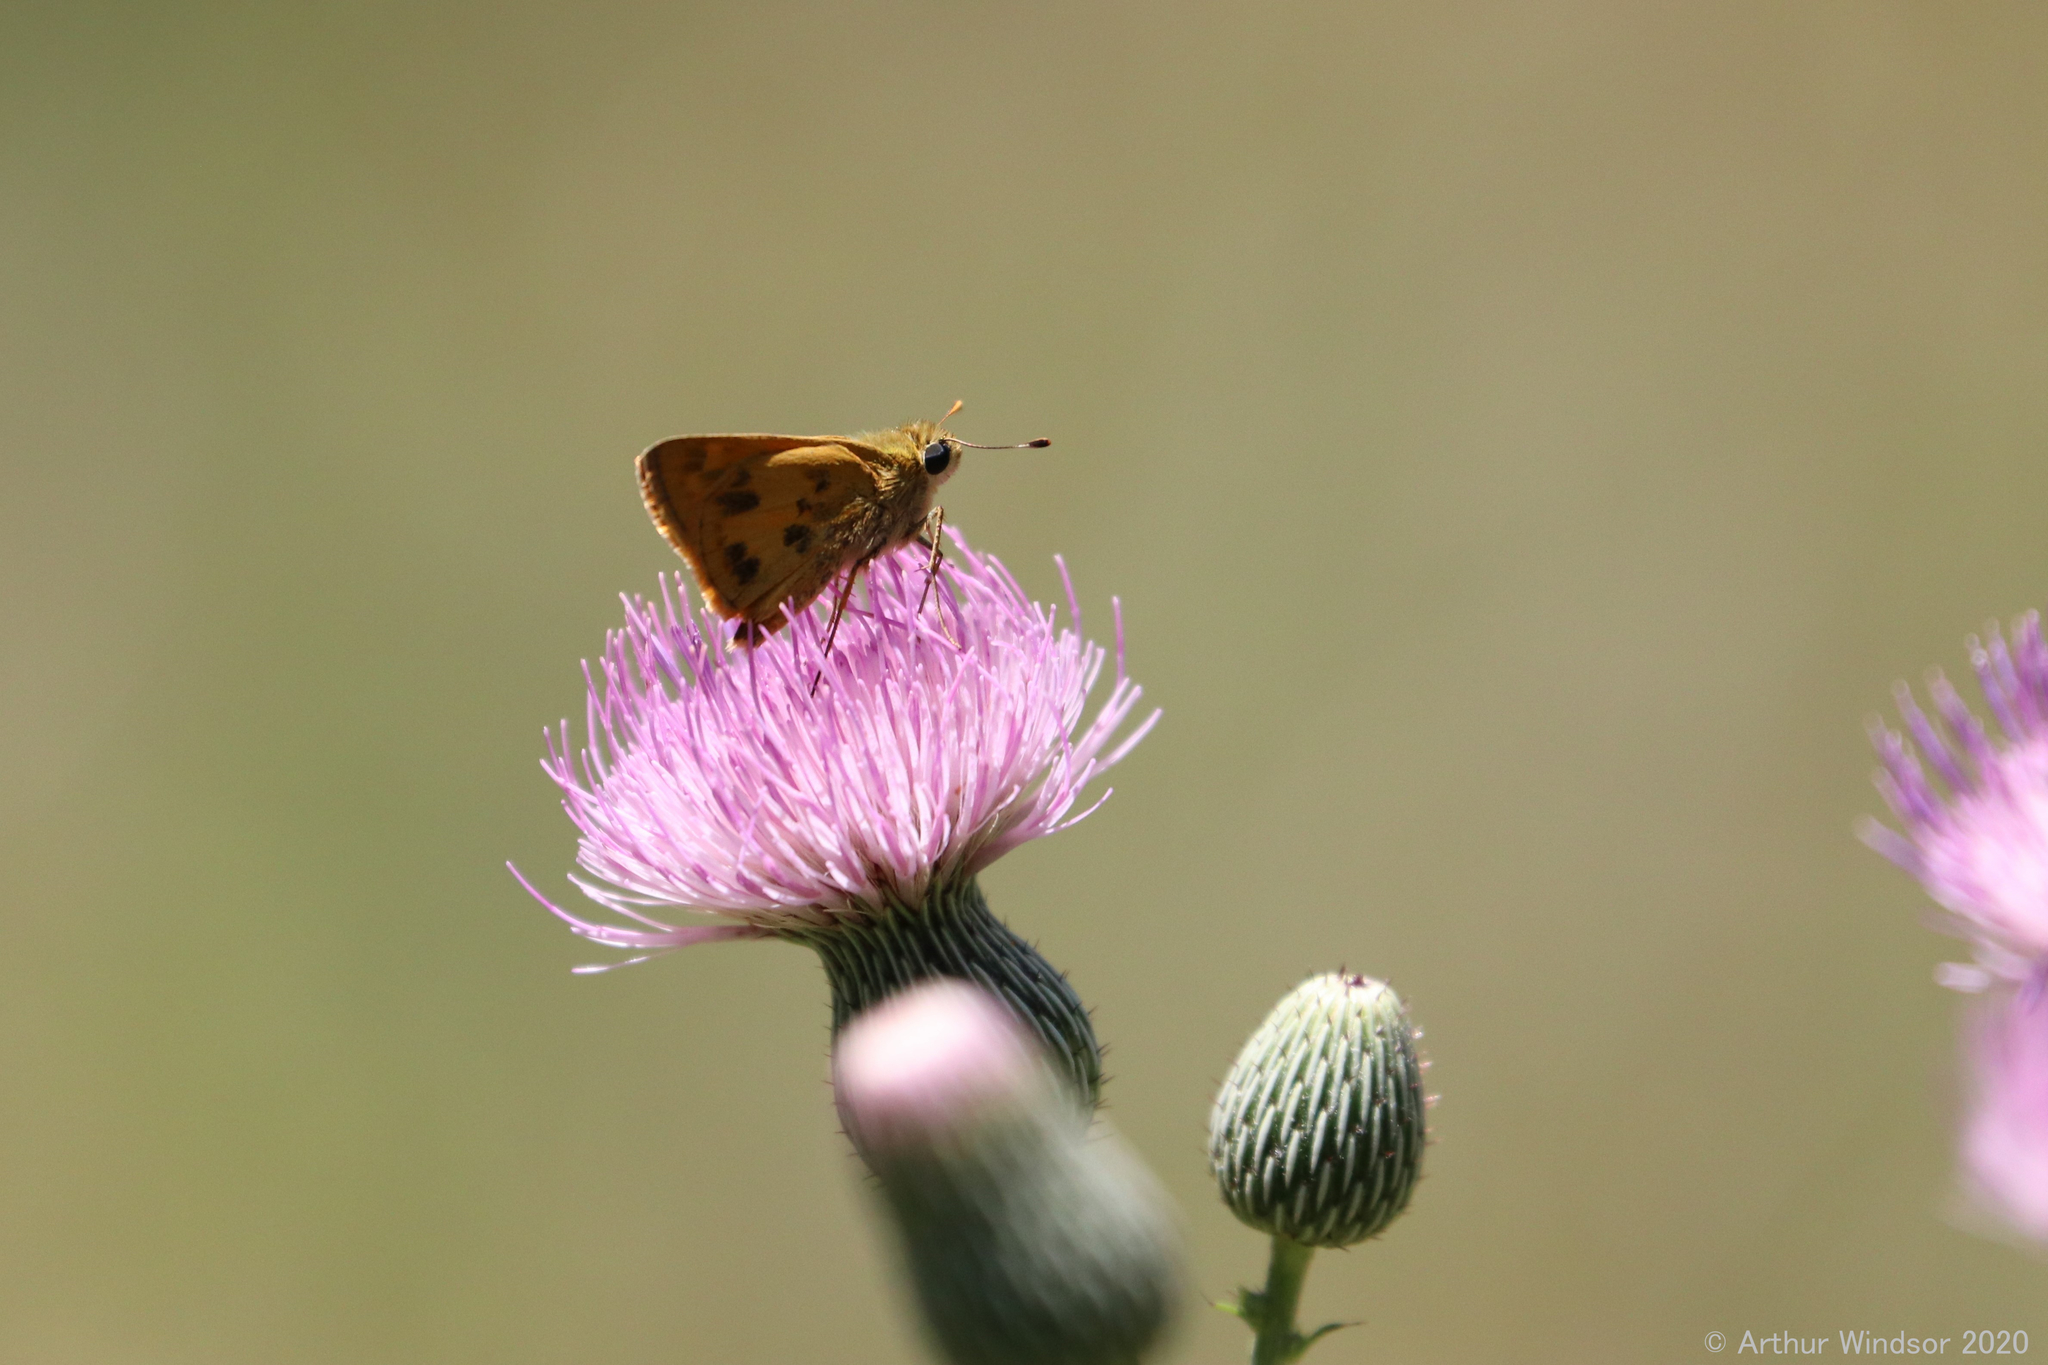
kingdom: Animalia
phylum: Arthropoda
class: Insecta
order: Lepidoptera
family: Hesperiidae
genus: Polites
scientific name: Polites vibex
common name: Whirlabout
